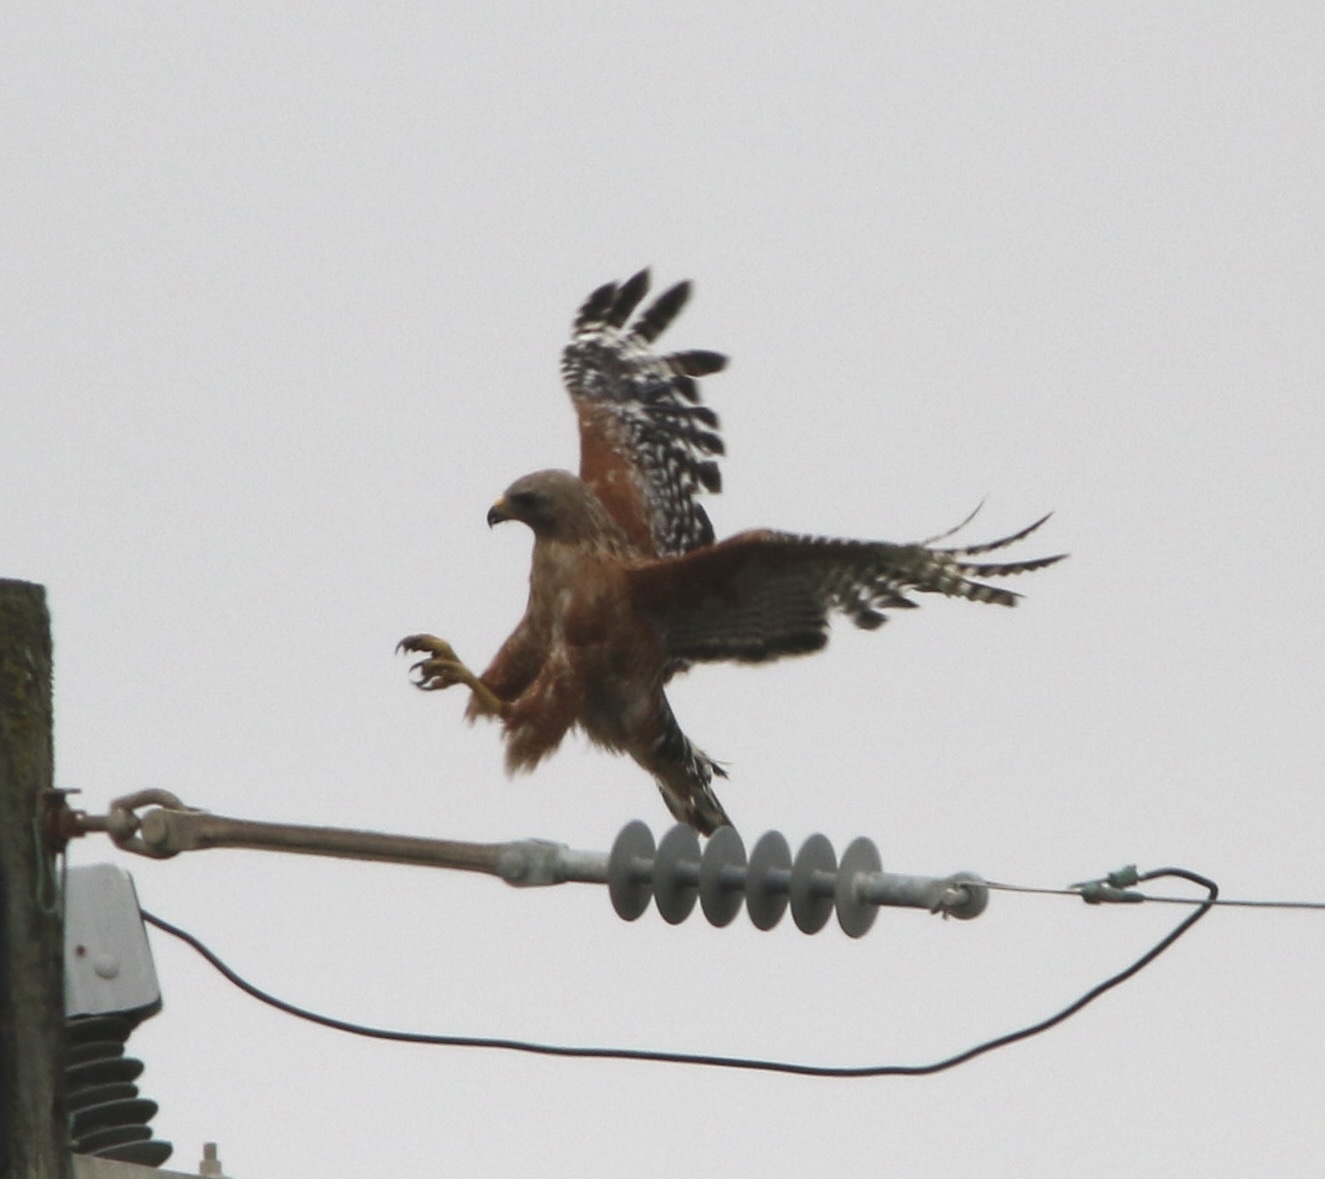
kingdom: Animalia
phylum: Chordata
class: Aves
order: Accipitriformes
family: Accipitridae
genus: Buteo
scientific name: Buteo lineatus
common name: Red-shouldered hawk
